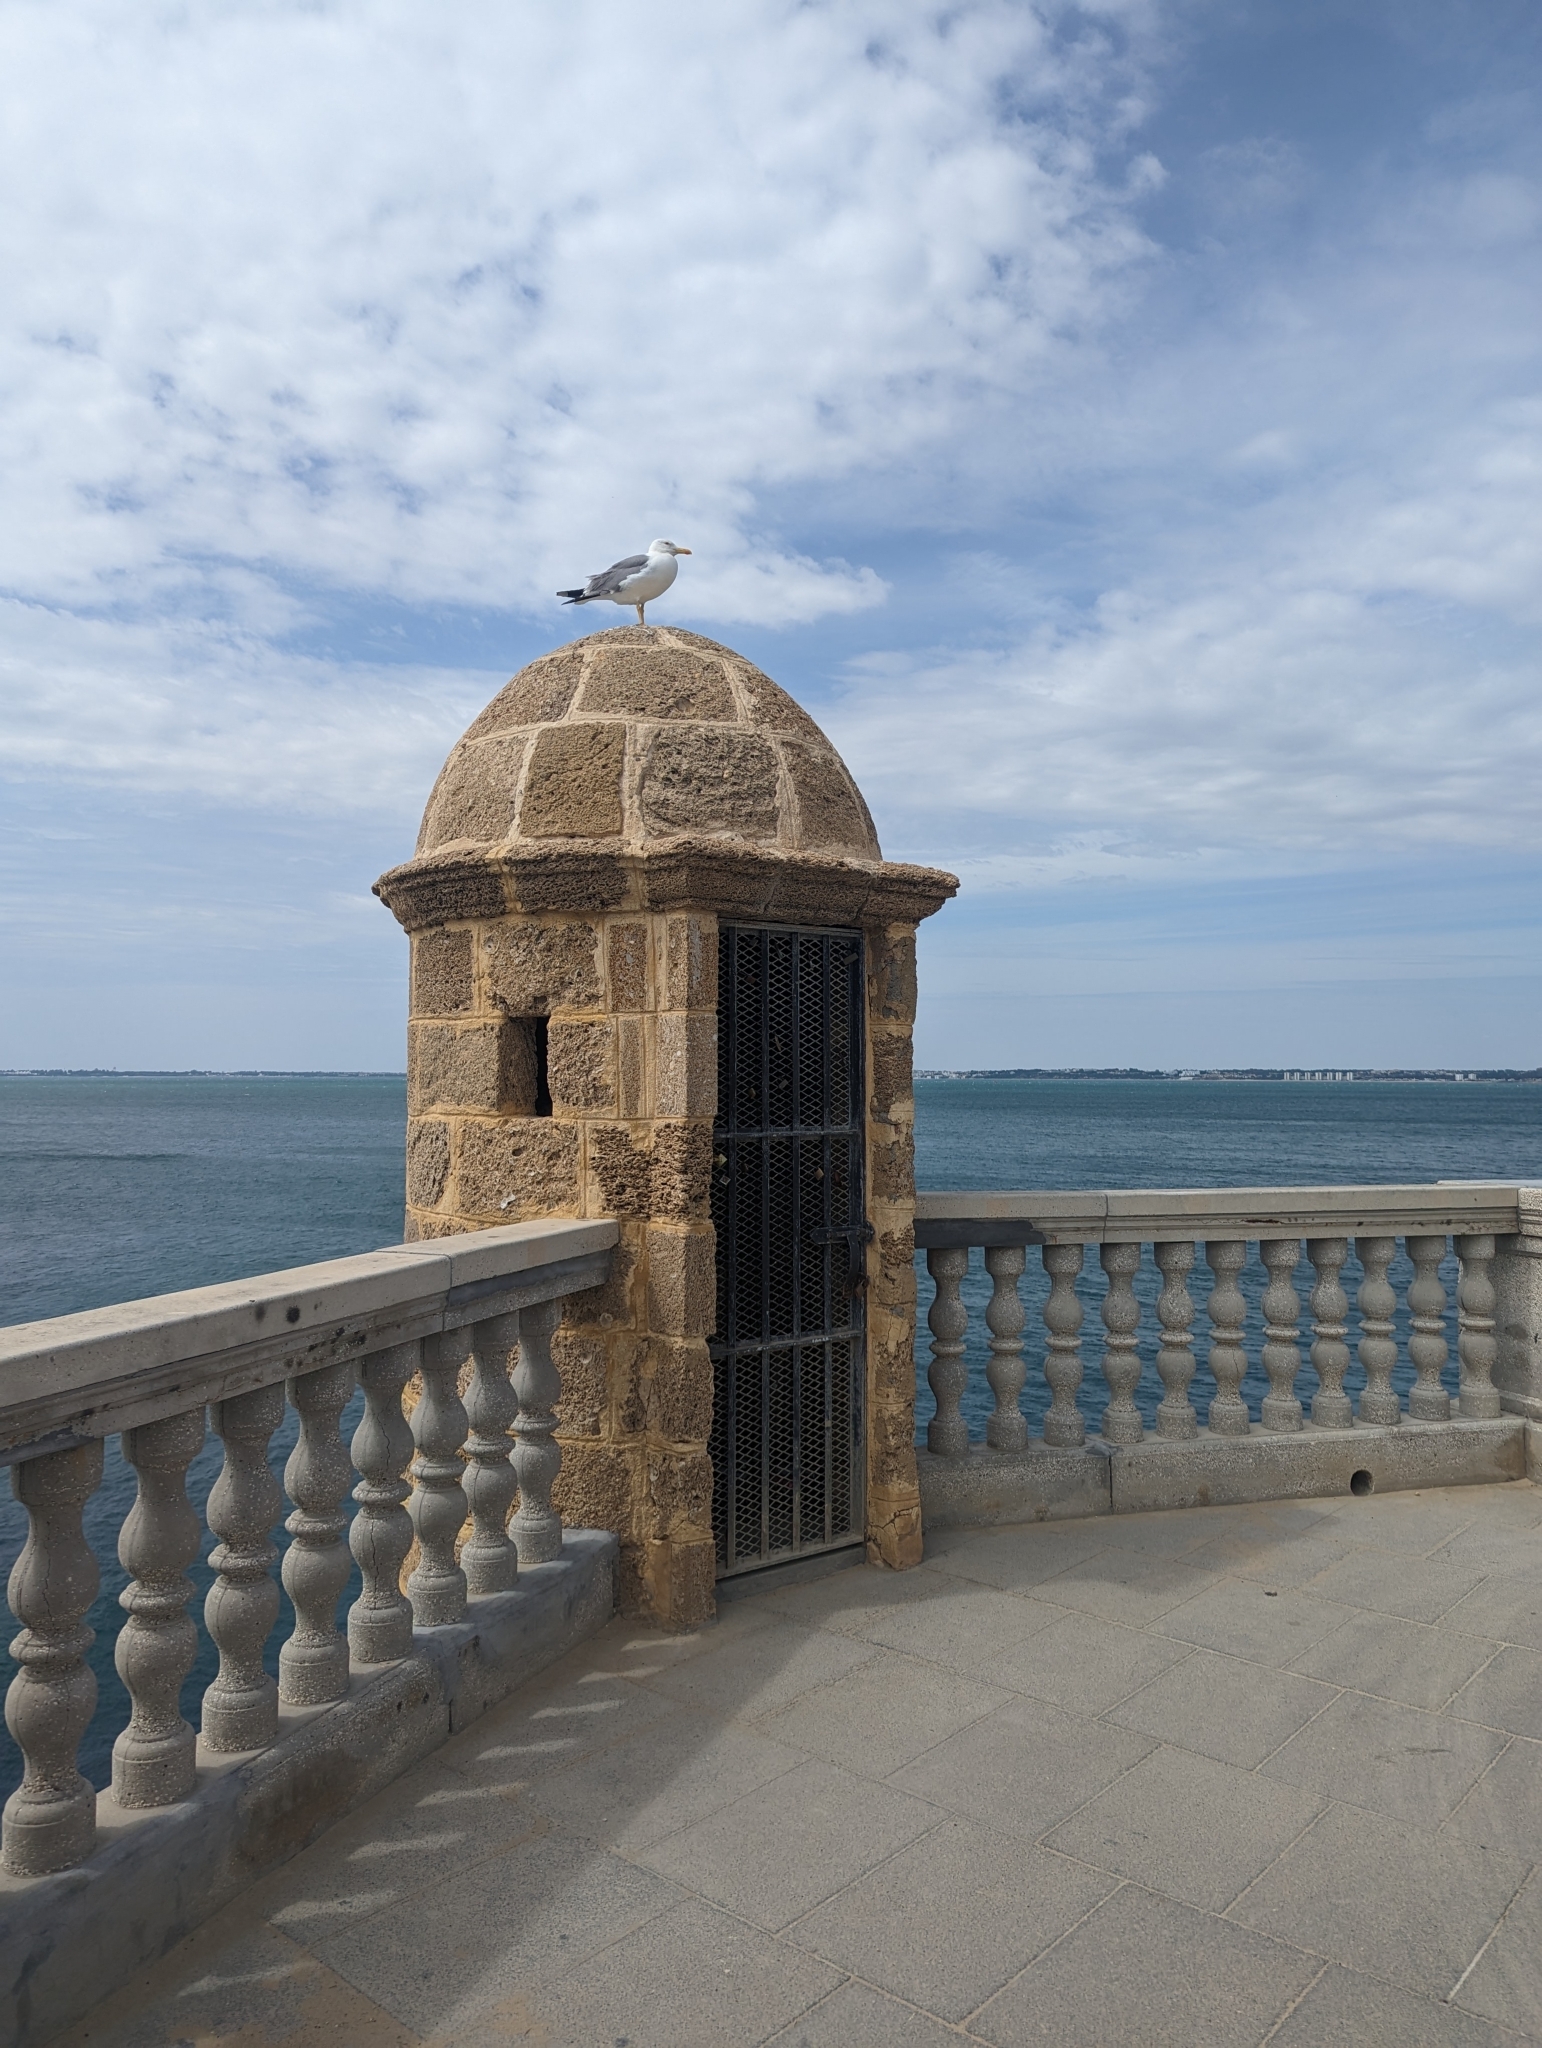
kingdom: Animalia
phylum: Chordata
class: Aves
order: Charadriiformes
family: Laridae
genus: Larus
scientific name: Larus michahellis
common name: Yellow-legged gull
